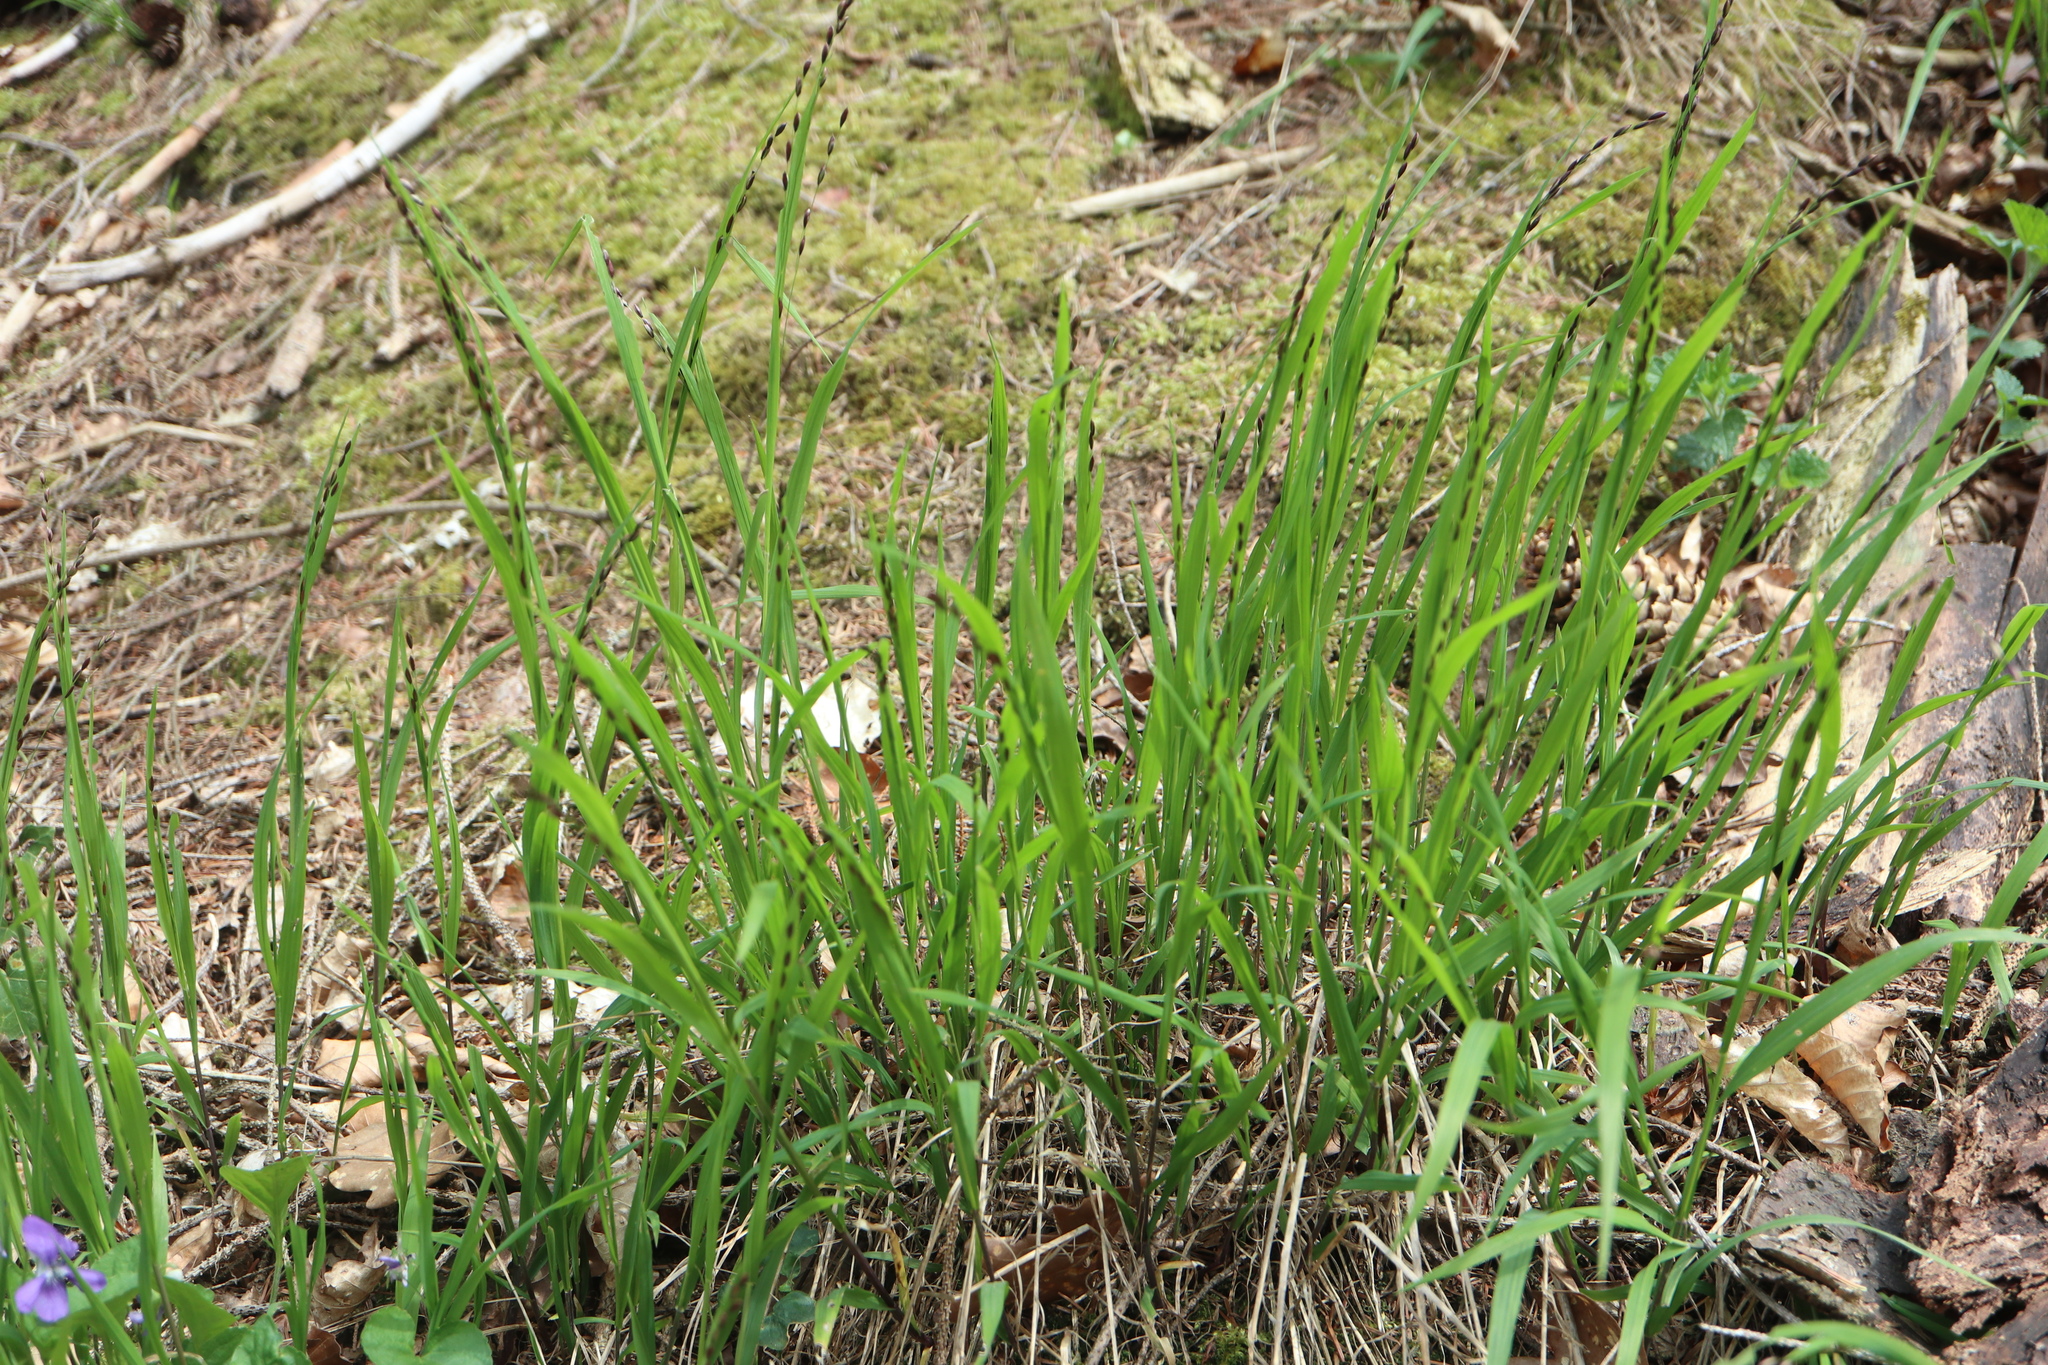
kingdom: Plantae
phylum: Tracheophyta
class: Liliopsida
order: Poales
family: Poaceae
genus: Melica
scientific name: Melica uniflora
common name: Wood melick
